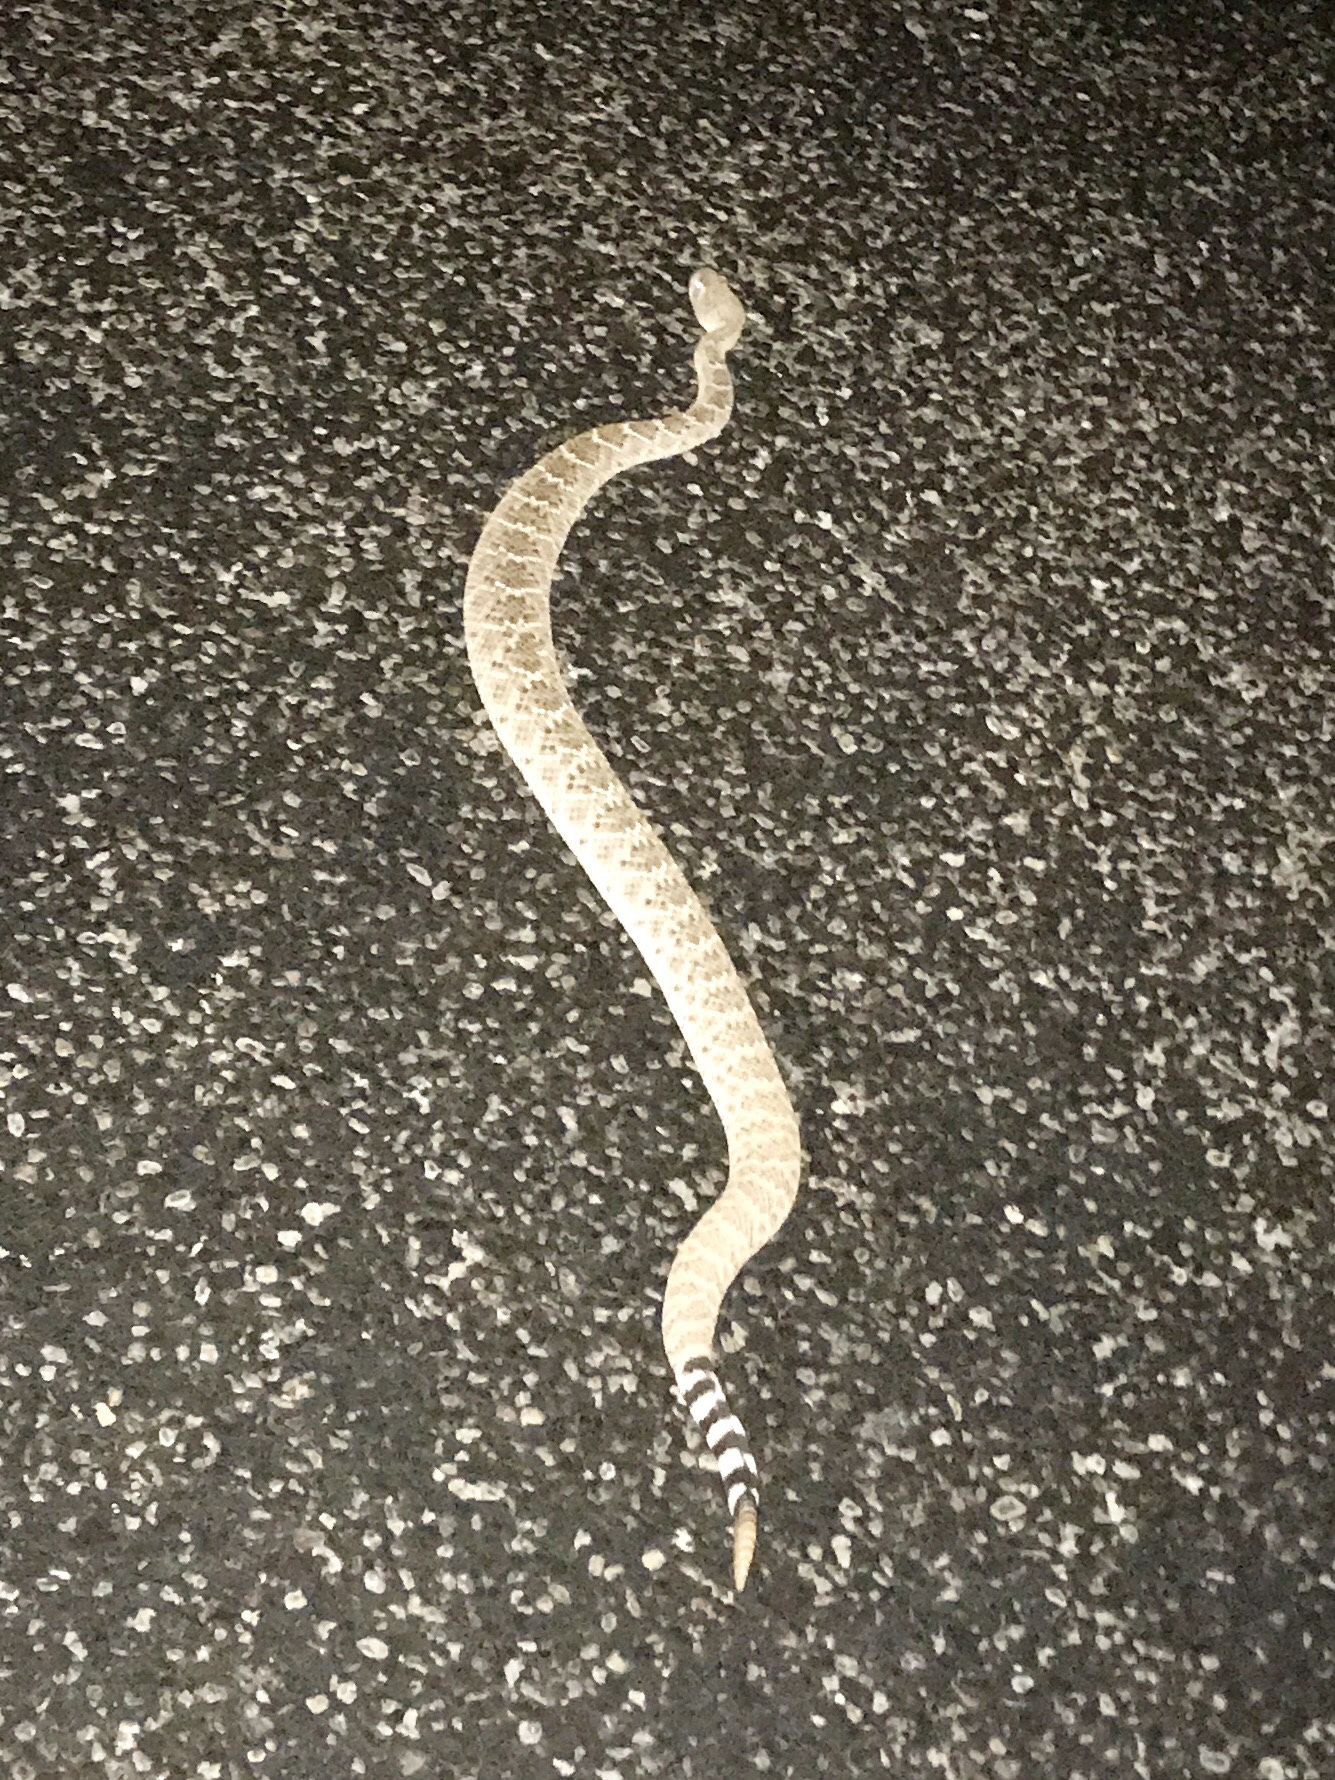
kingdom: Animalia
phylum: Chordata
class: Squamata
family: Viperidae
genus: Crotalus
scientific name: Crotalus atrox
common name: Western diamond-backed rattlesnake
